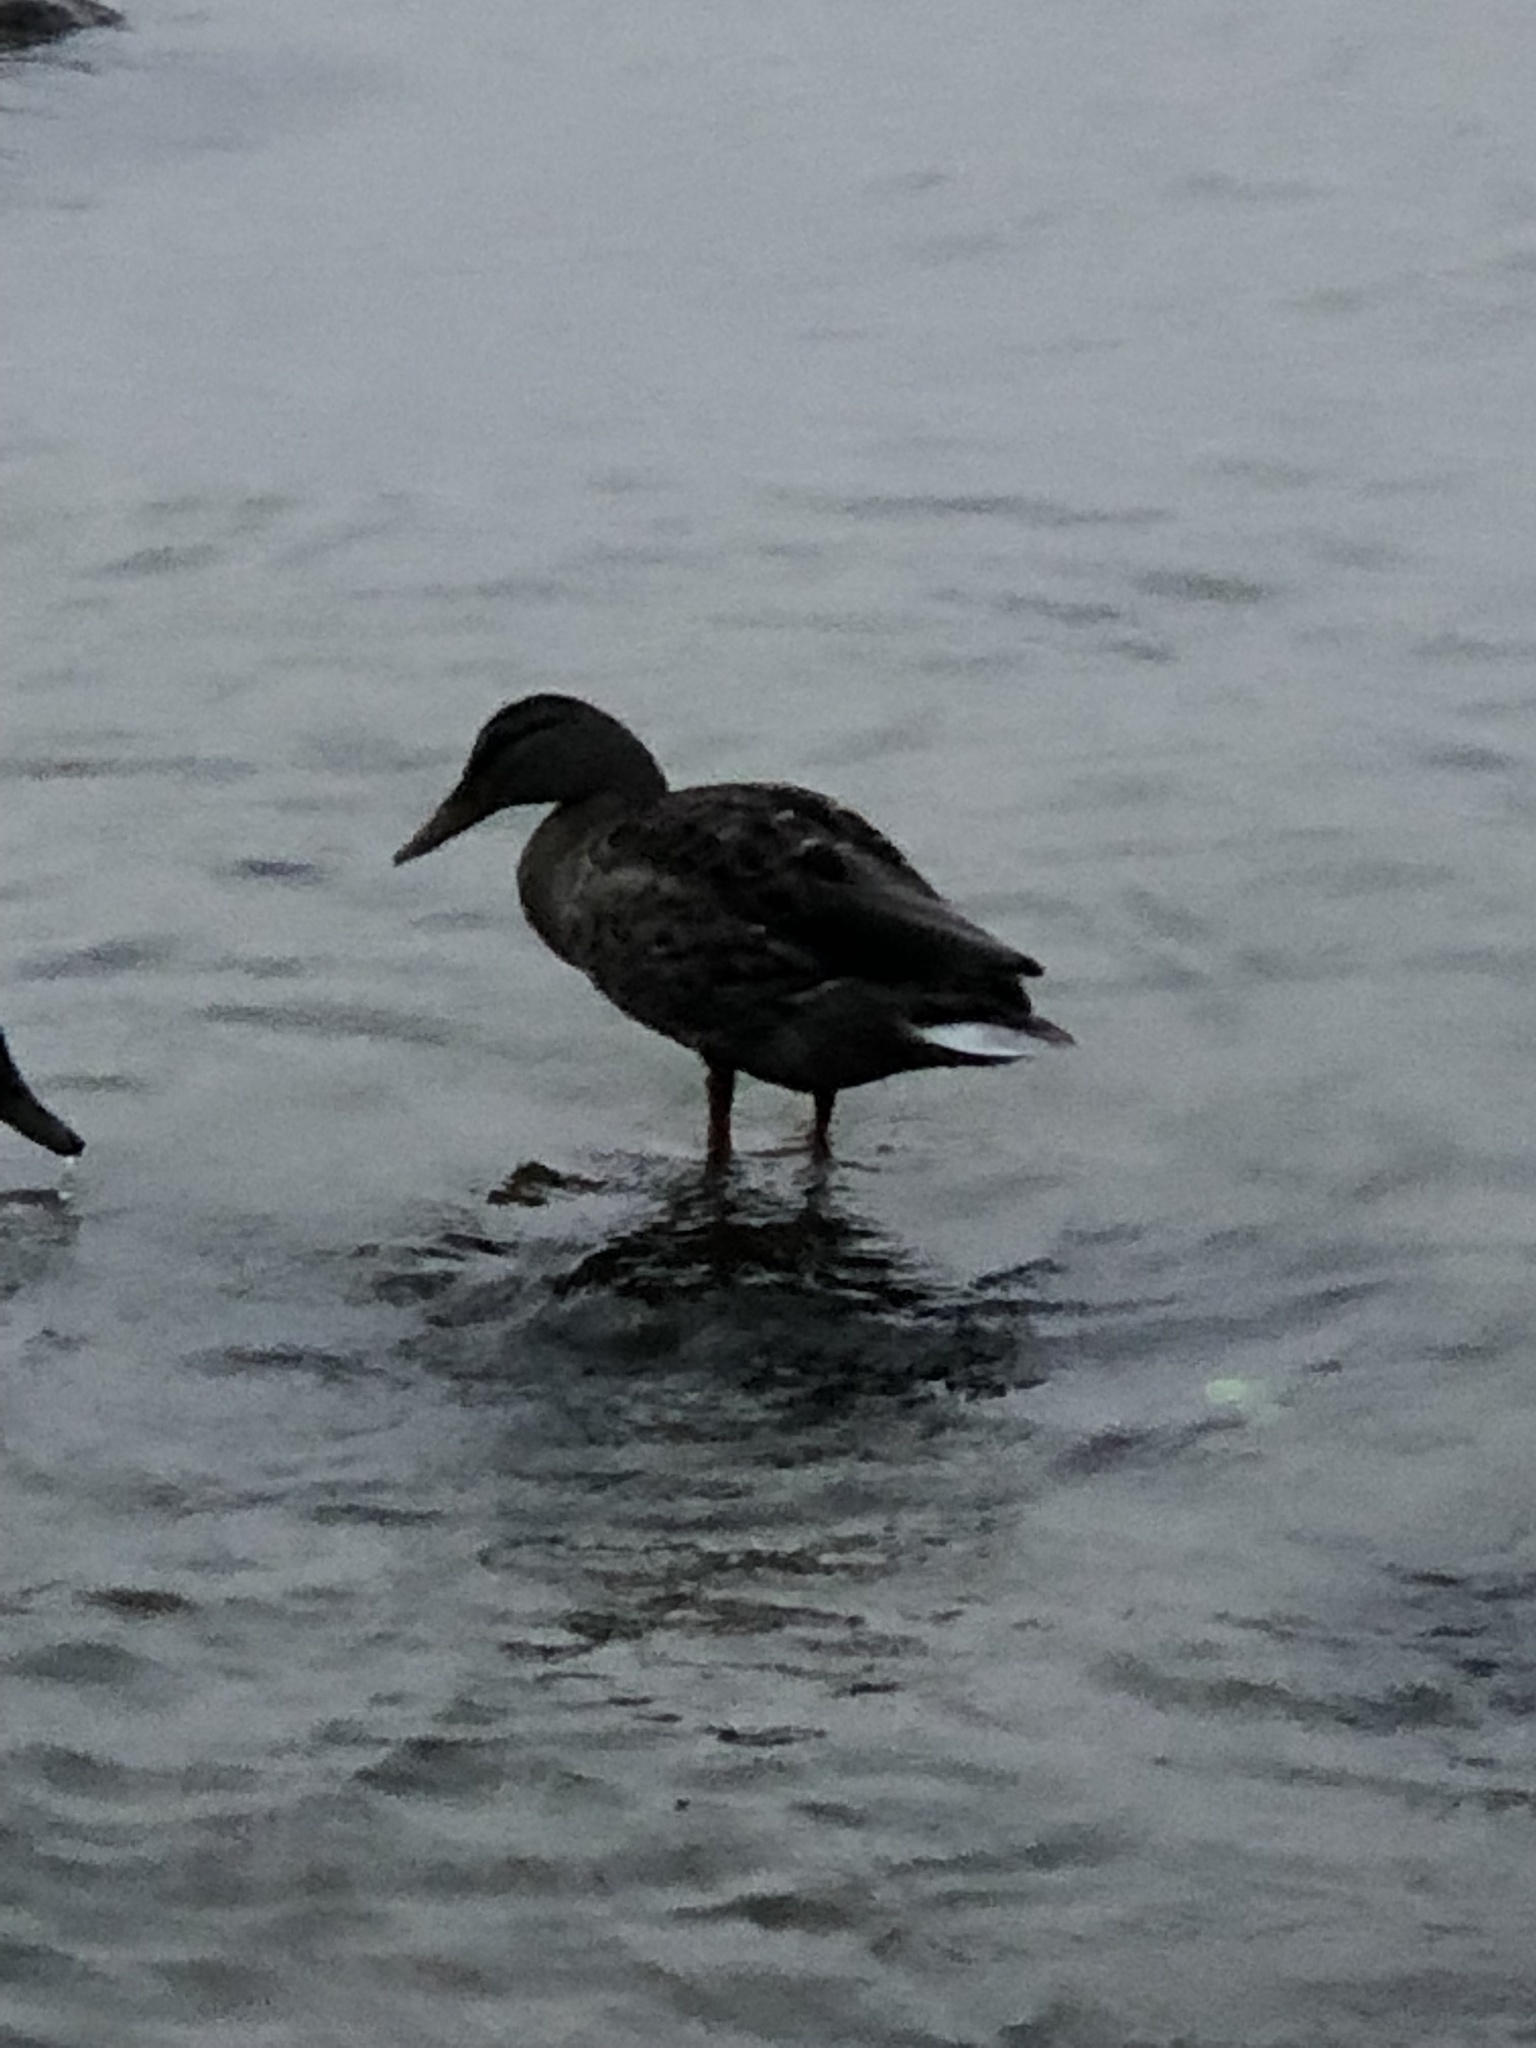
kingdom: Animalia
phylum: Chordata
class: Aves
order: Anseriformes
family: Anatidae
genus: Anas
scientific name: Anas platyrhynchos
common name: Mallard
